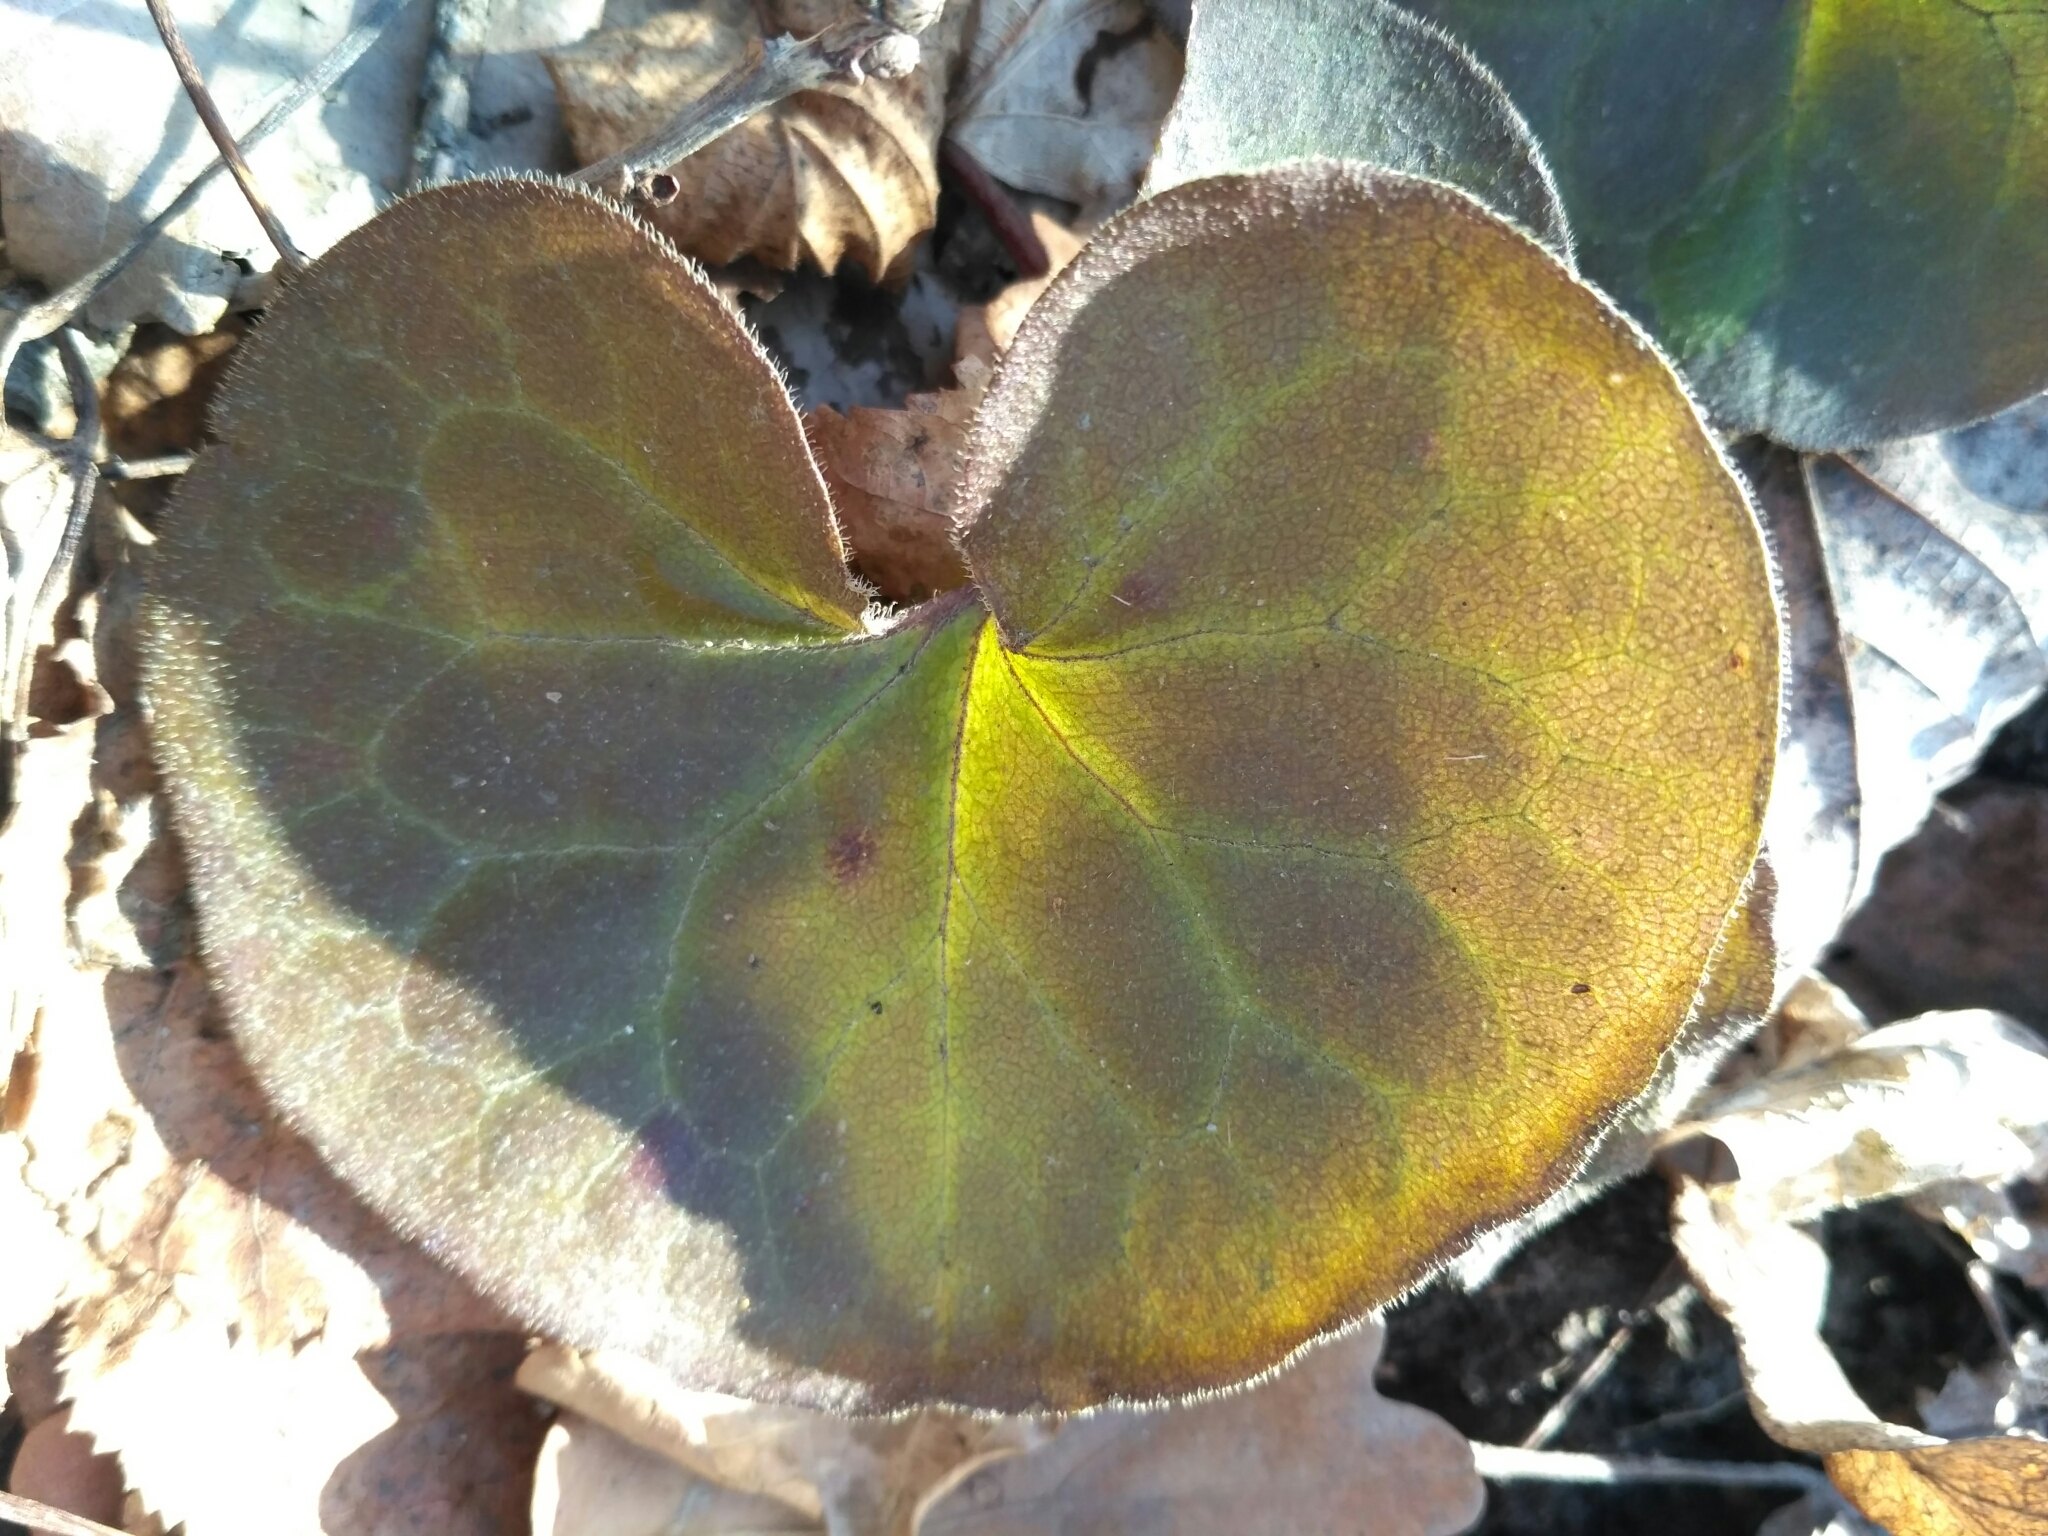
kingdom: Plantae
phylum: Tracheophyta
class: Magnoliopsida
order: Piperales
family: Aristolochiaceae
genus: Asarum
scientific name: Asarum europaeum
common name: Asarabacca
